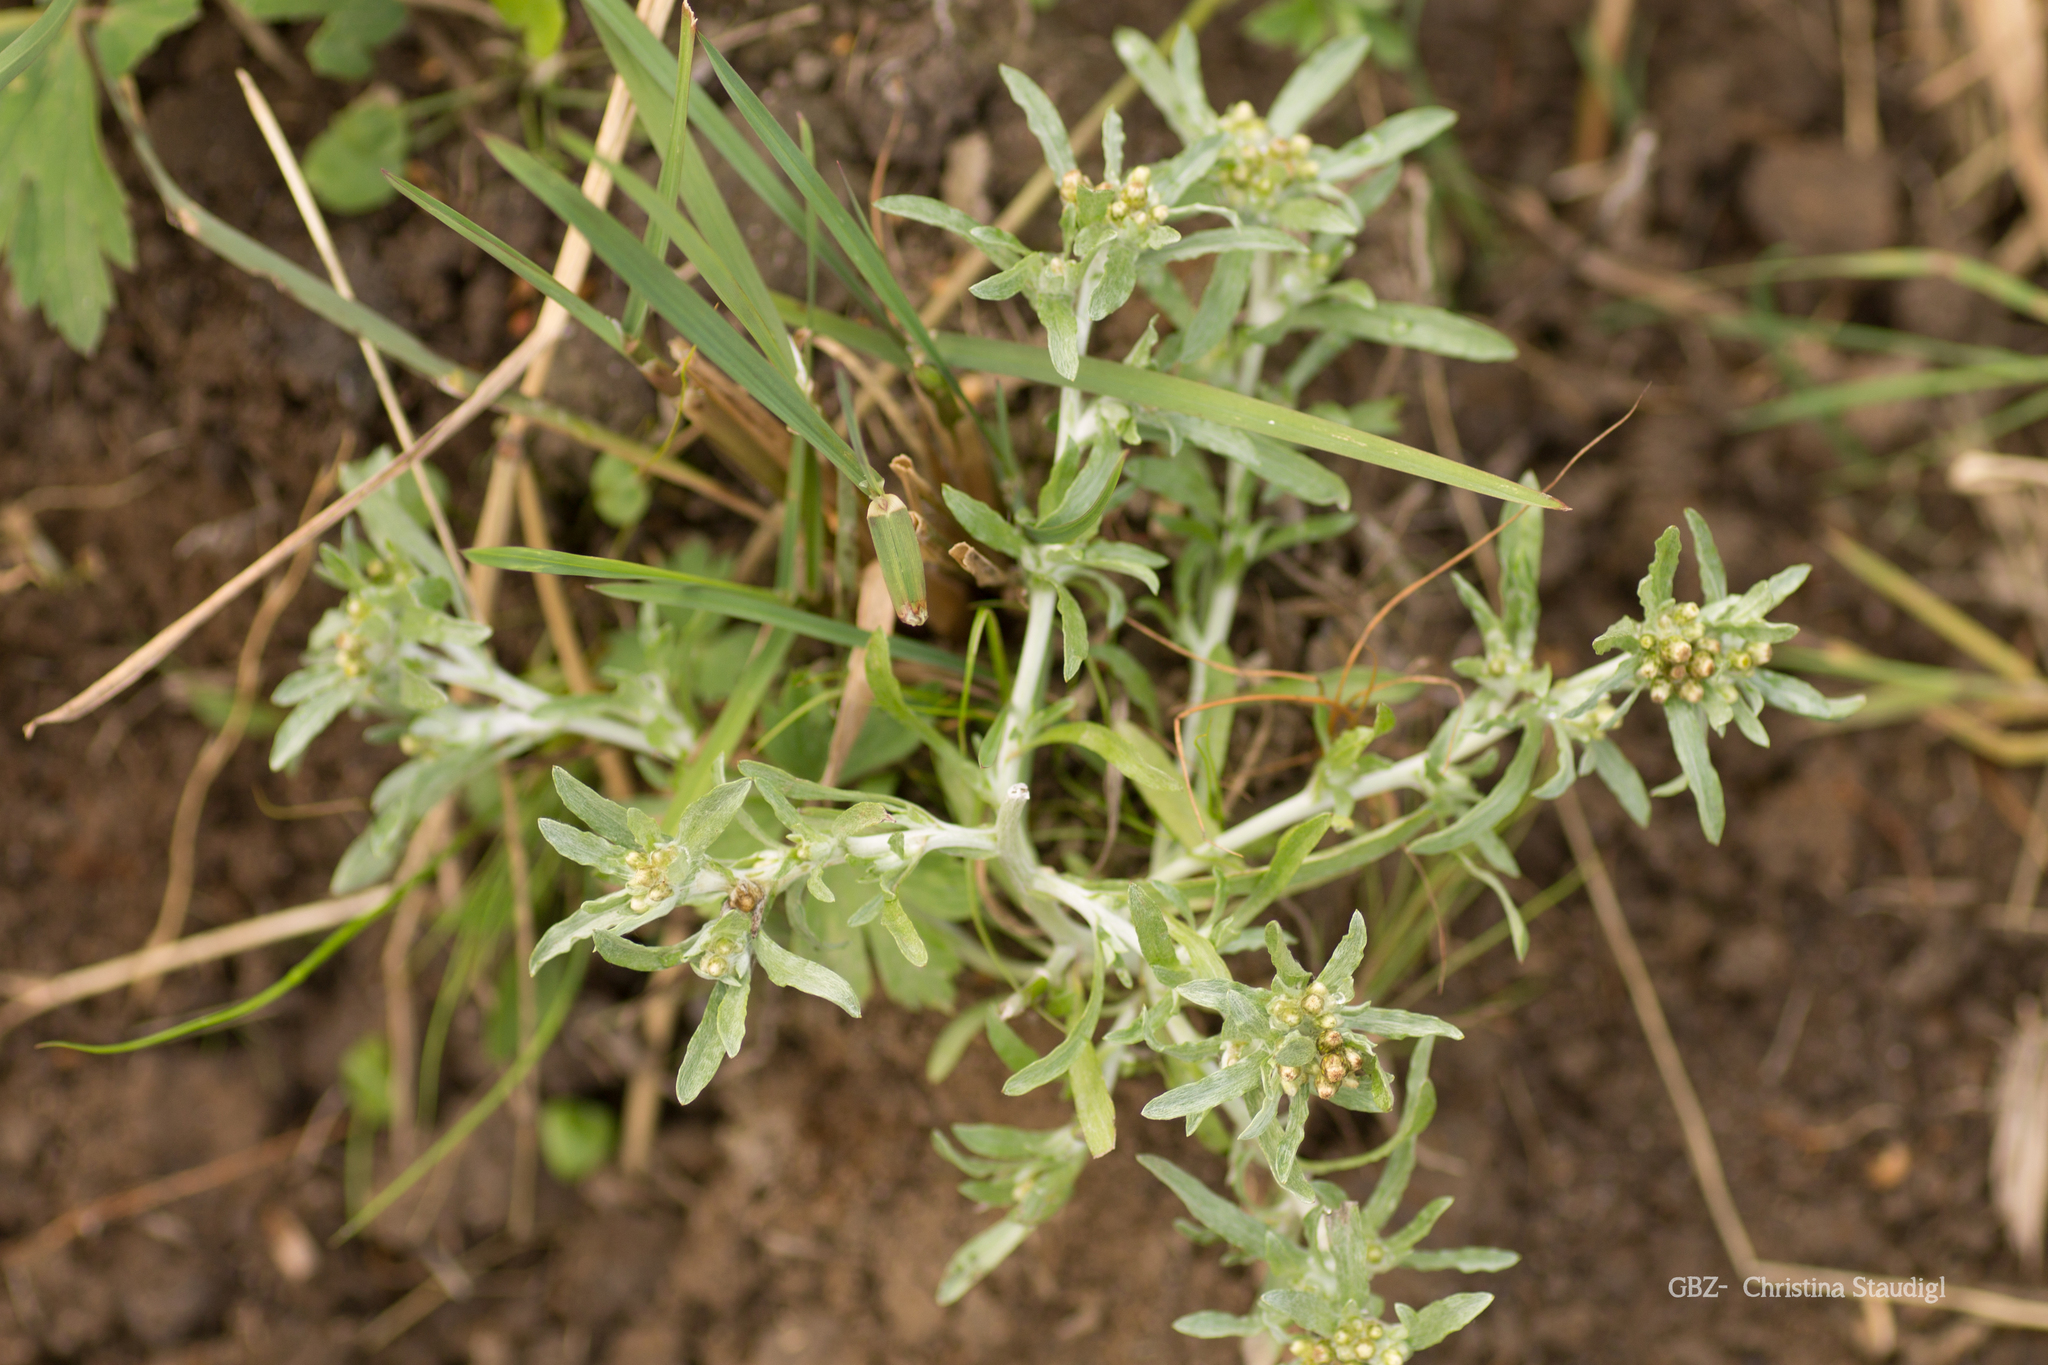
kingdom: Plantae
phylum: Tracheophyta
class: Magnoliopsida
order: Asterales
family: Asteraceae
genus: Gnaphalium
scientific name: Gnaphalium uliginosum
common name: Marsh cudweed
